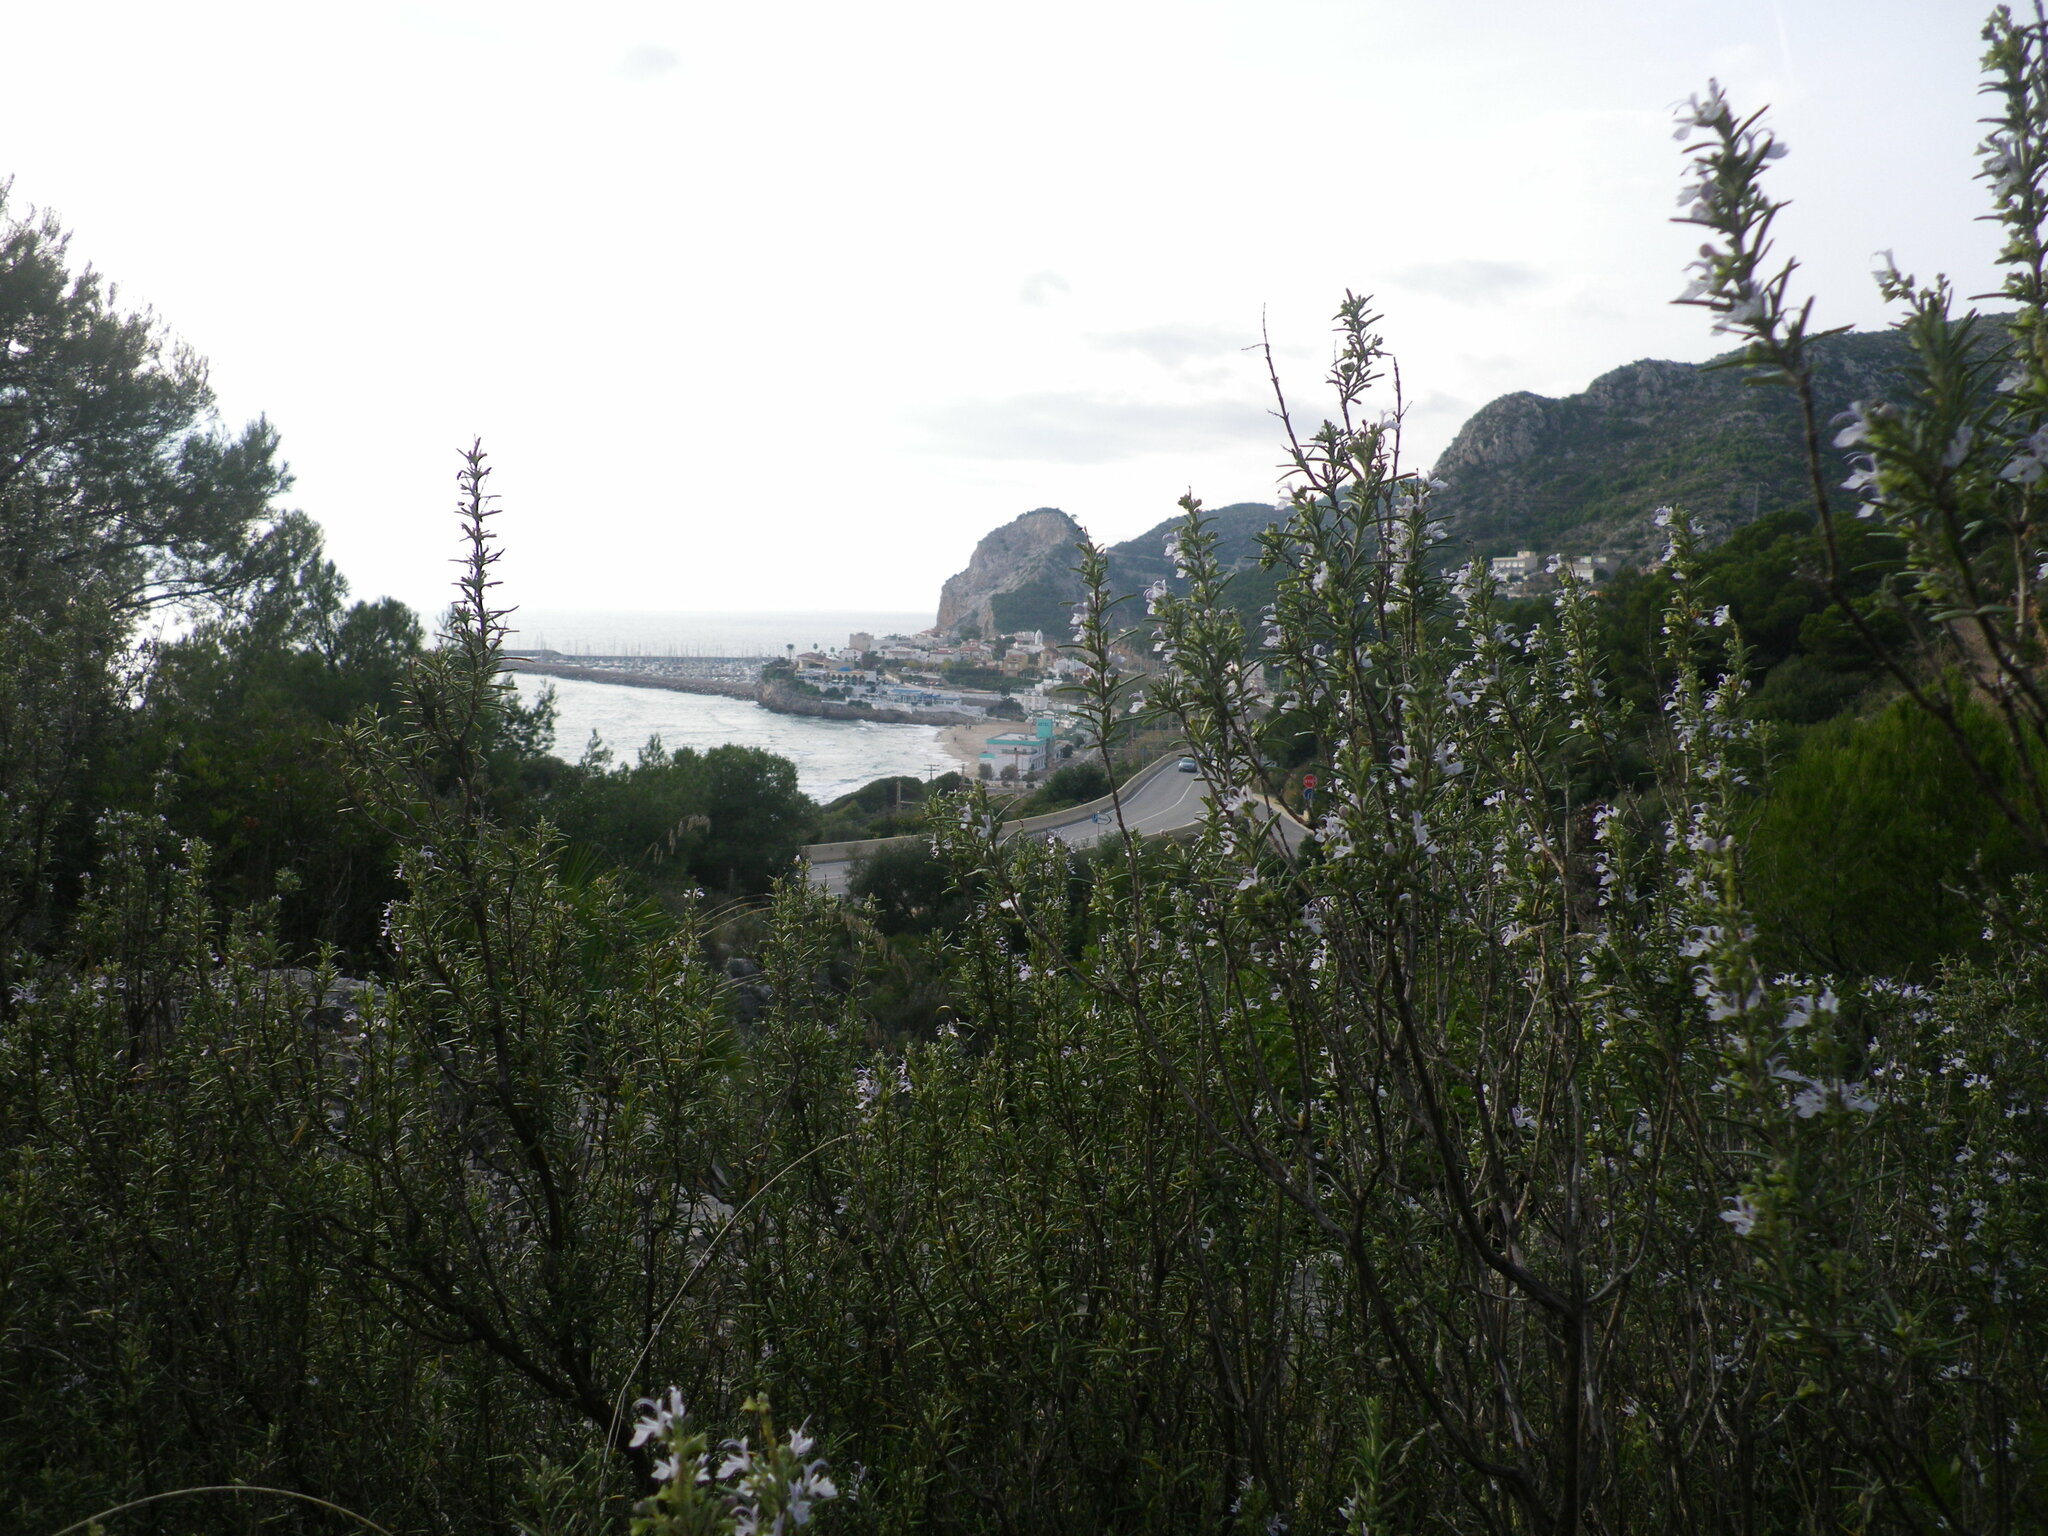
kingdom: Plantae
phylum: Tracheophyta
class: Magnoliopsida
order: Lamiales
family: Lamiaceae
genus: Salvia
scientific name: Salvia rosmarinus
